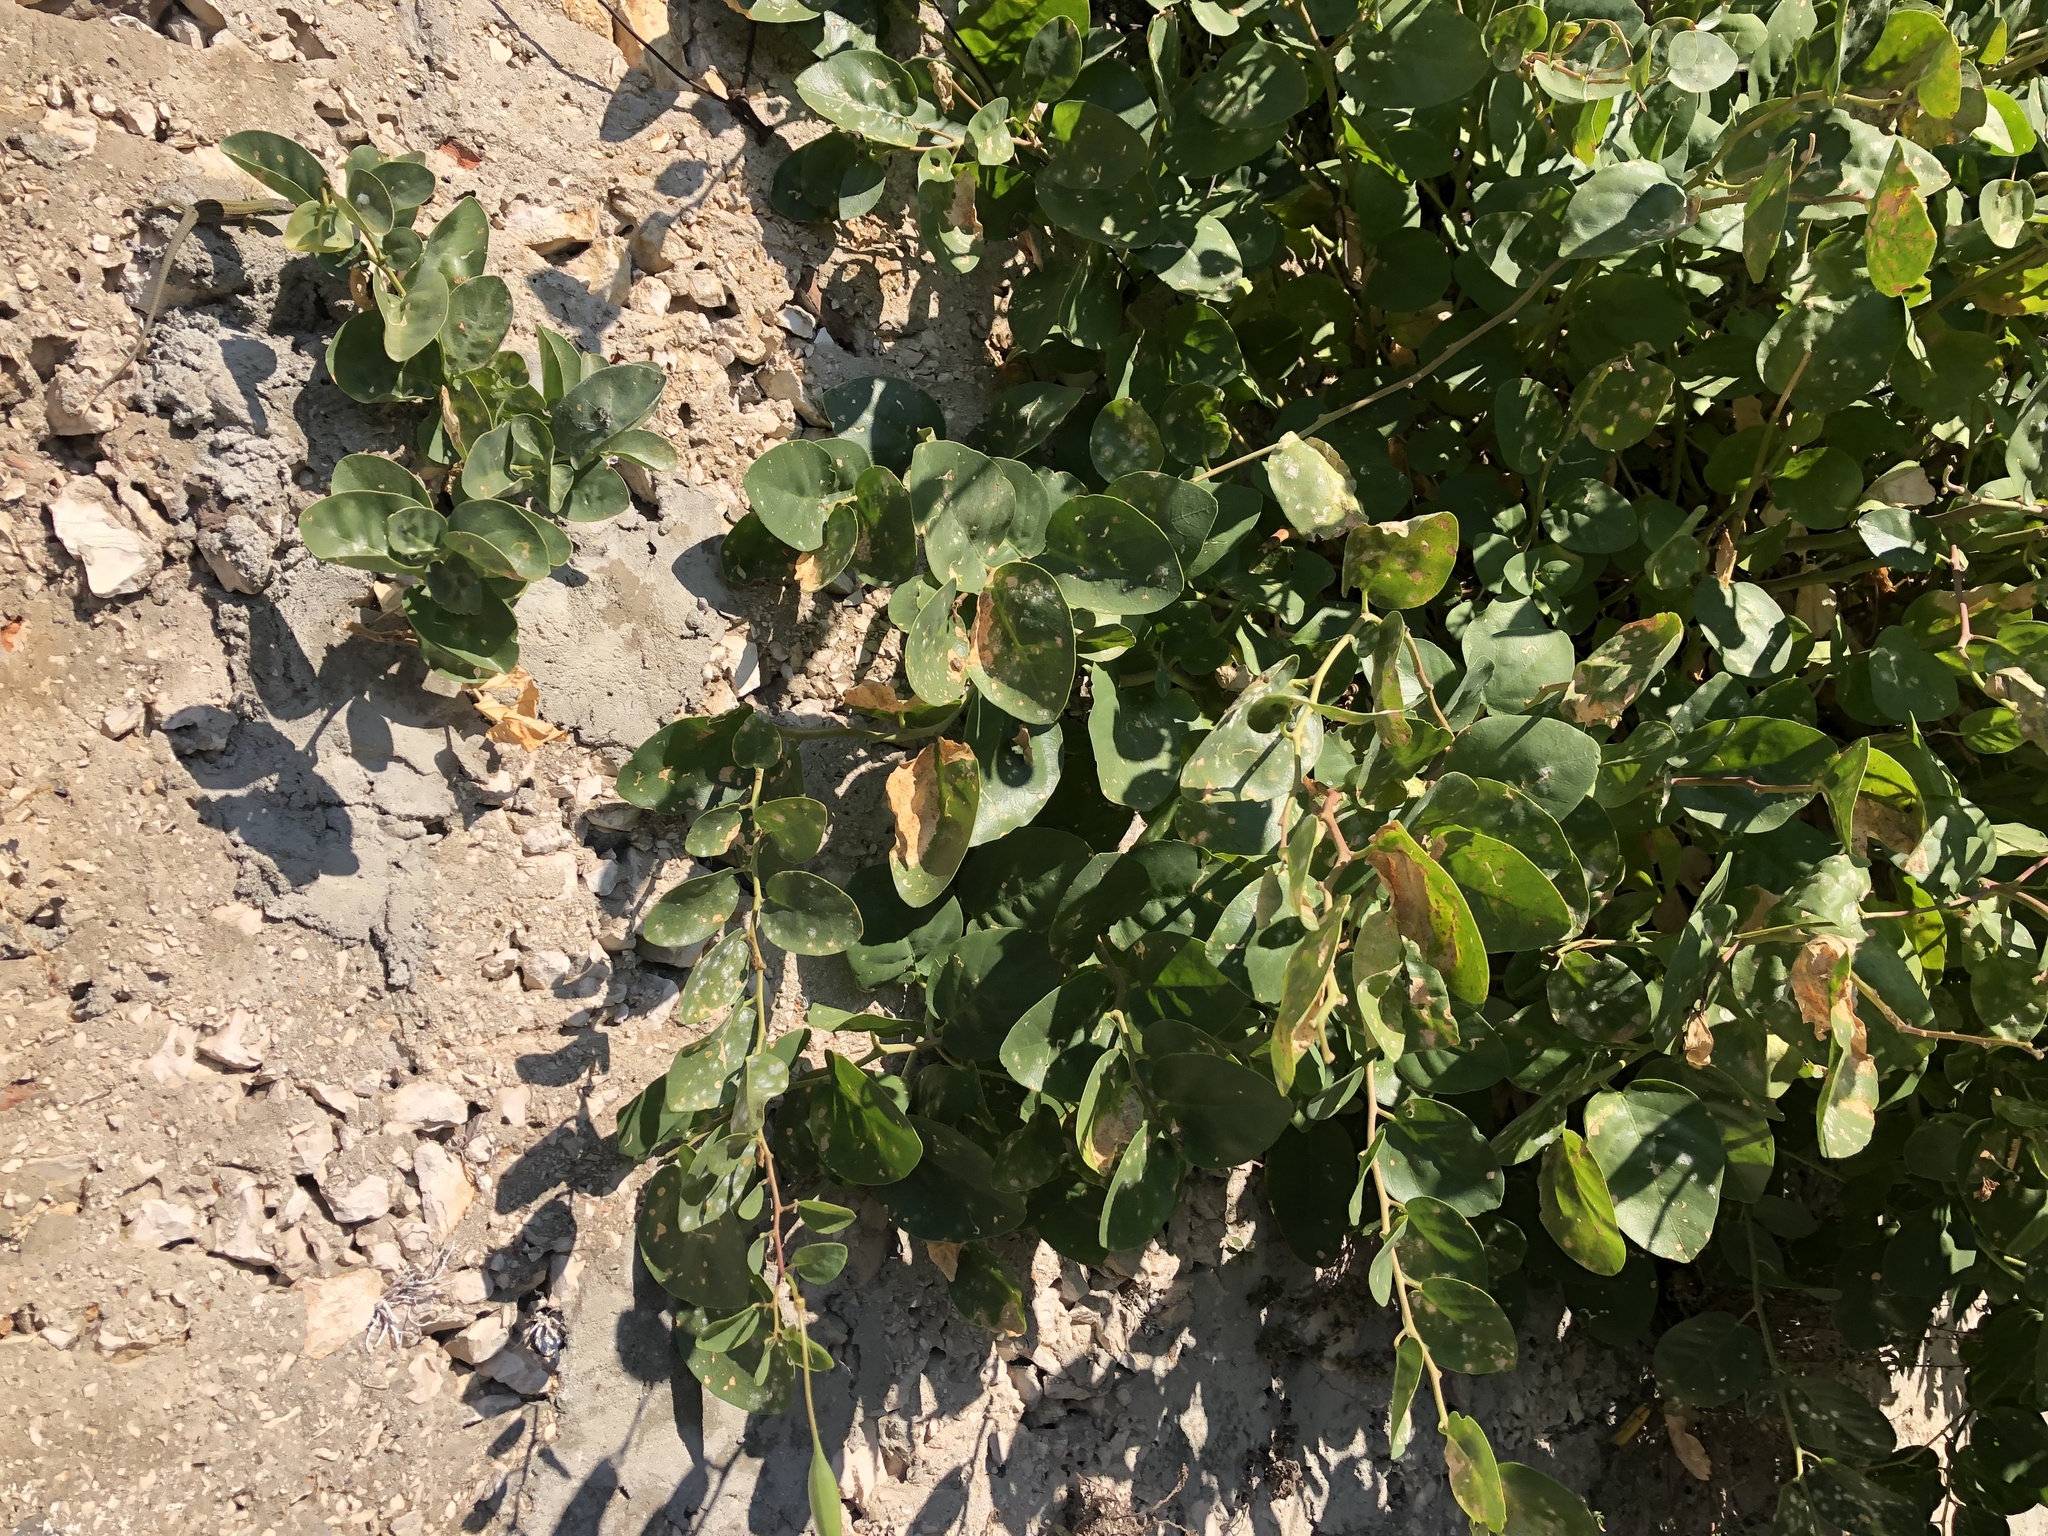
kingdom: Plantae
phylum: Tracheophyta
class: Magnoliopsida
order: Brassicales
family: Capparaceae
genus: Capparis
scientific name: Capparis orientalis
